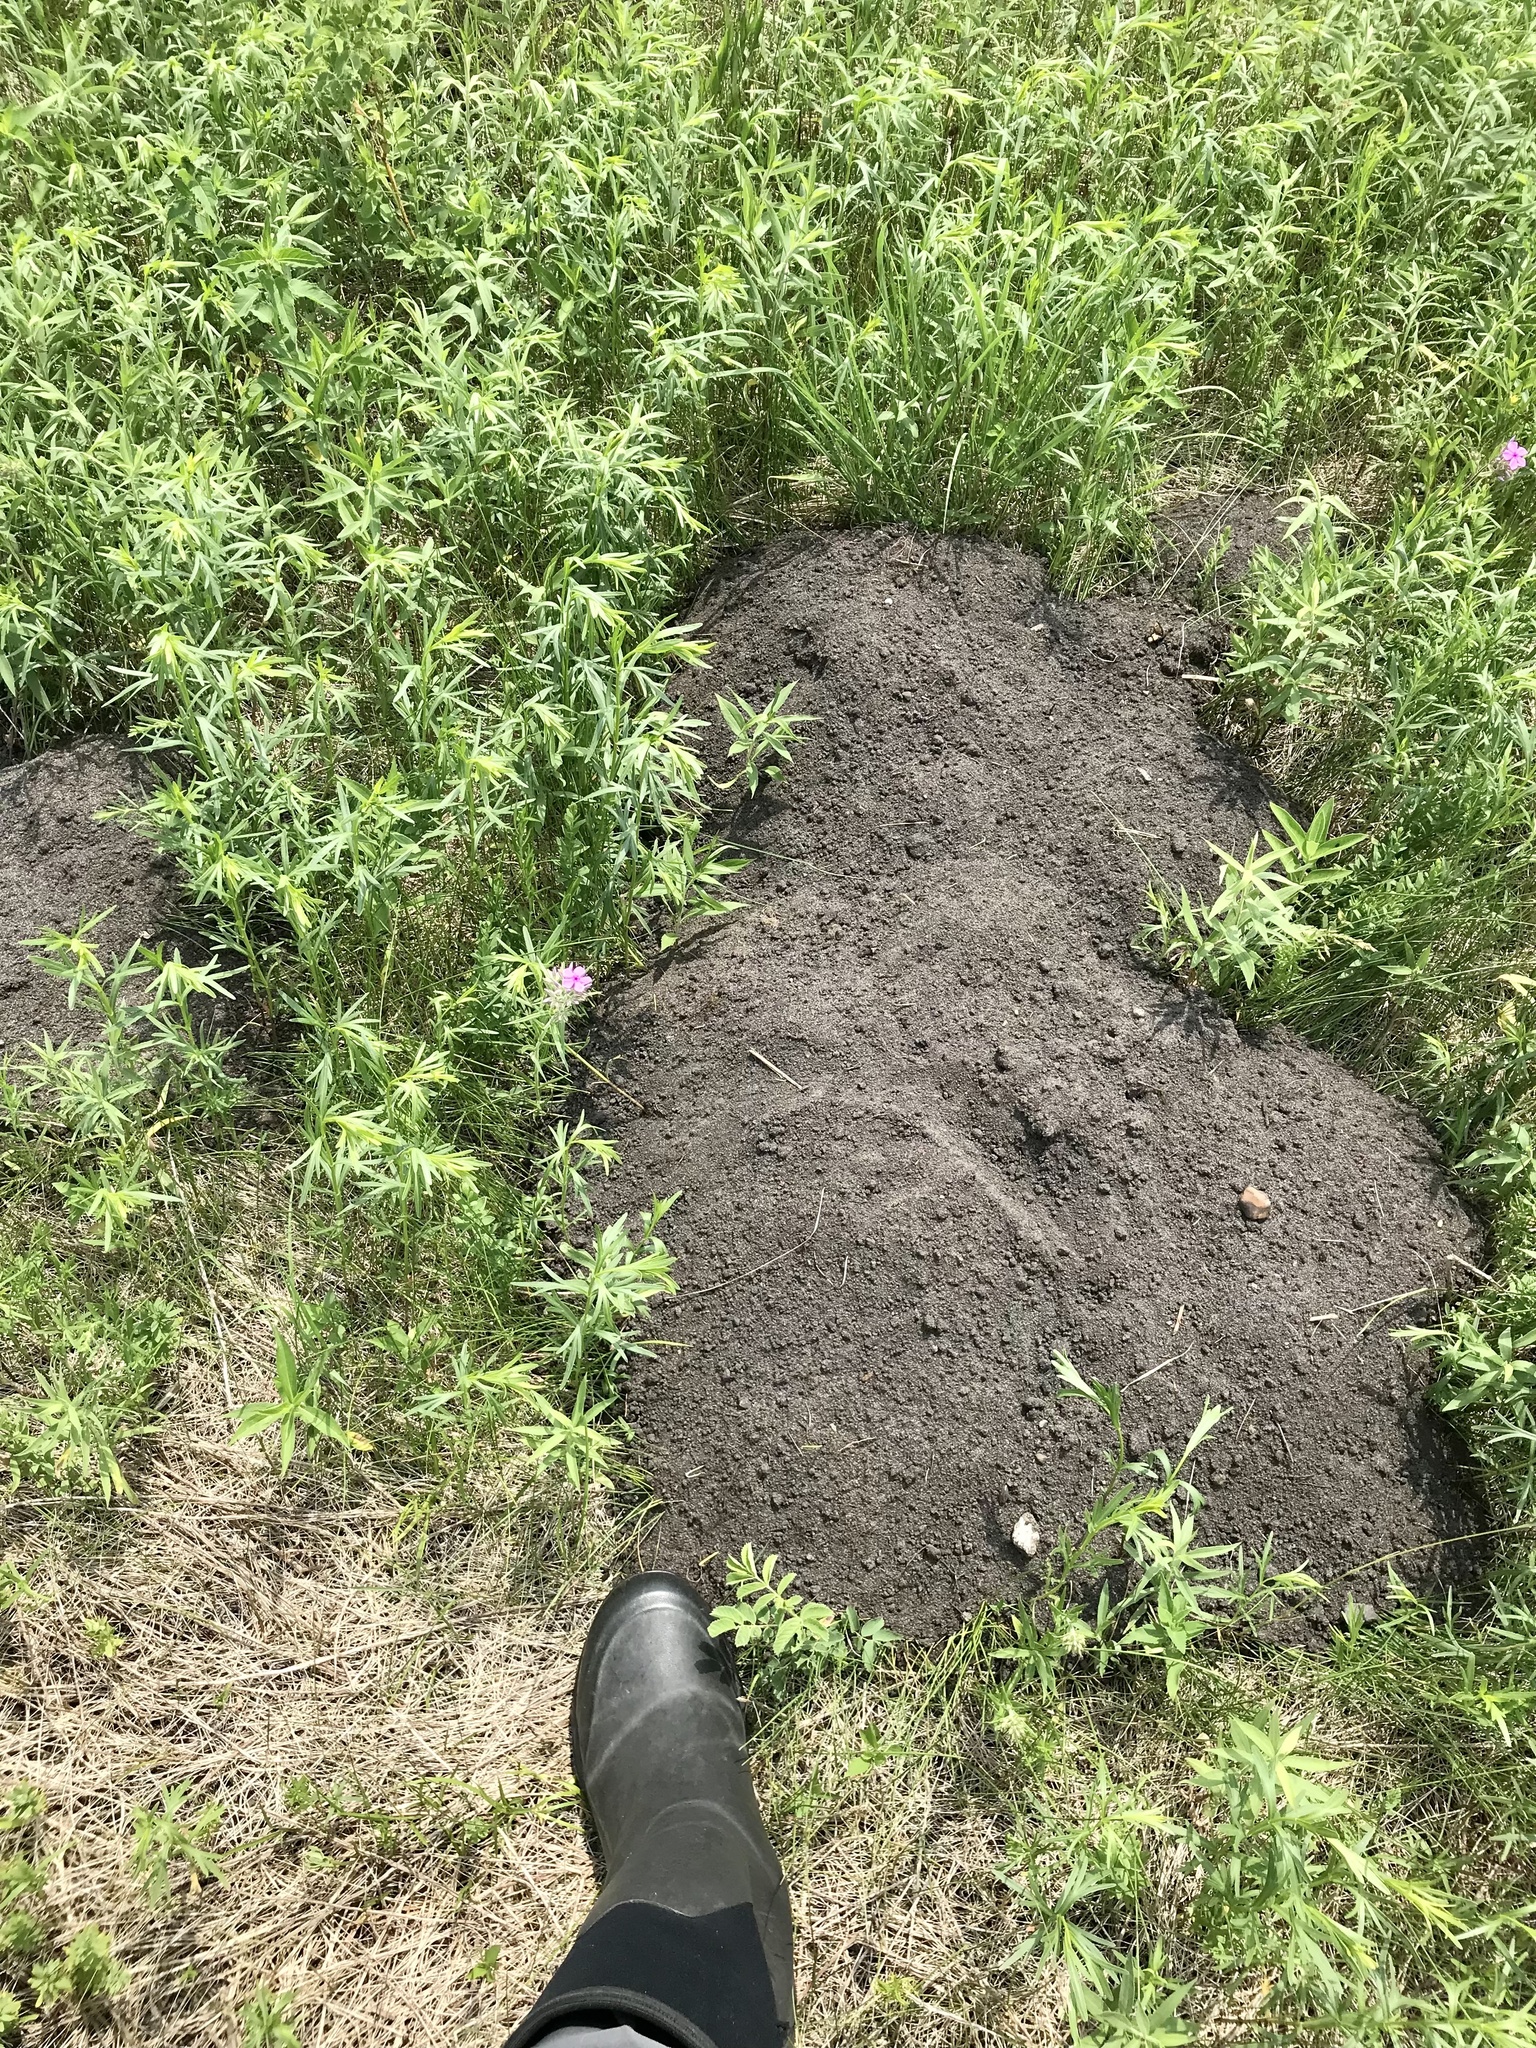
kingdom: Animalia
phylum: Chordata
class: Mammalia
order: Rodentia
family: Geomyidae
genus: Geomys
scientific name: Geomys bursarius
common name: Plains pocket gopher
